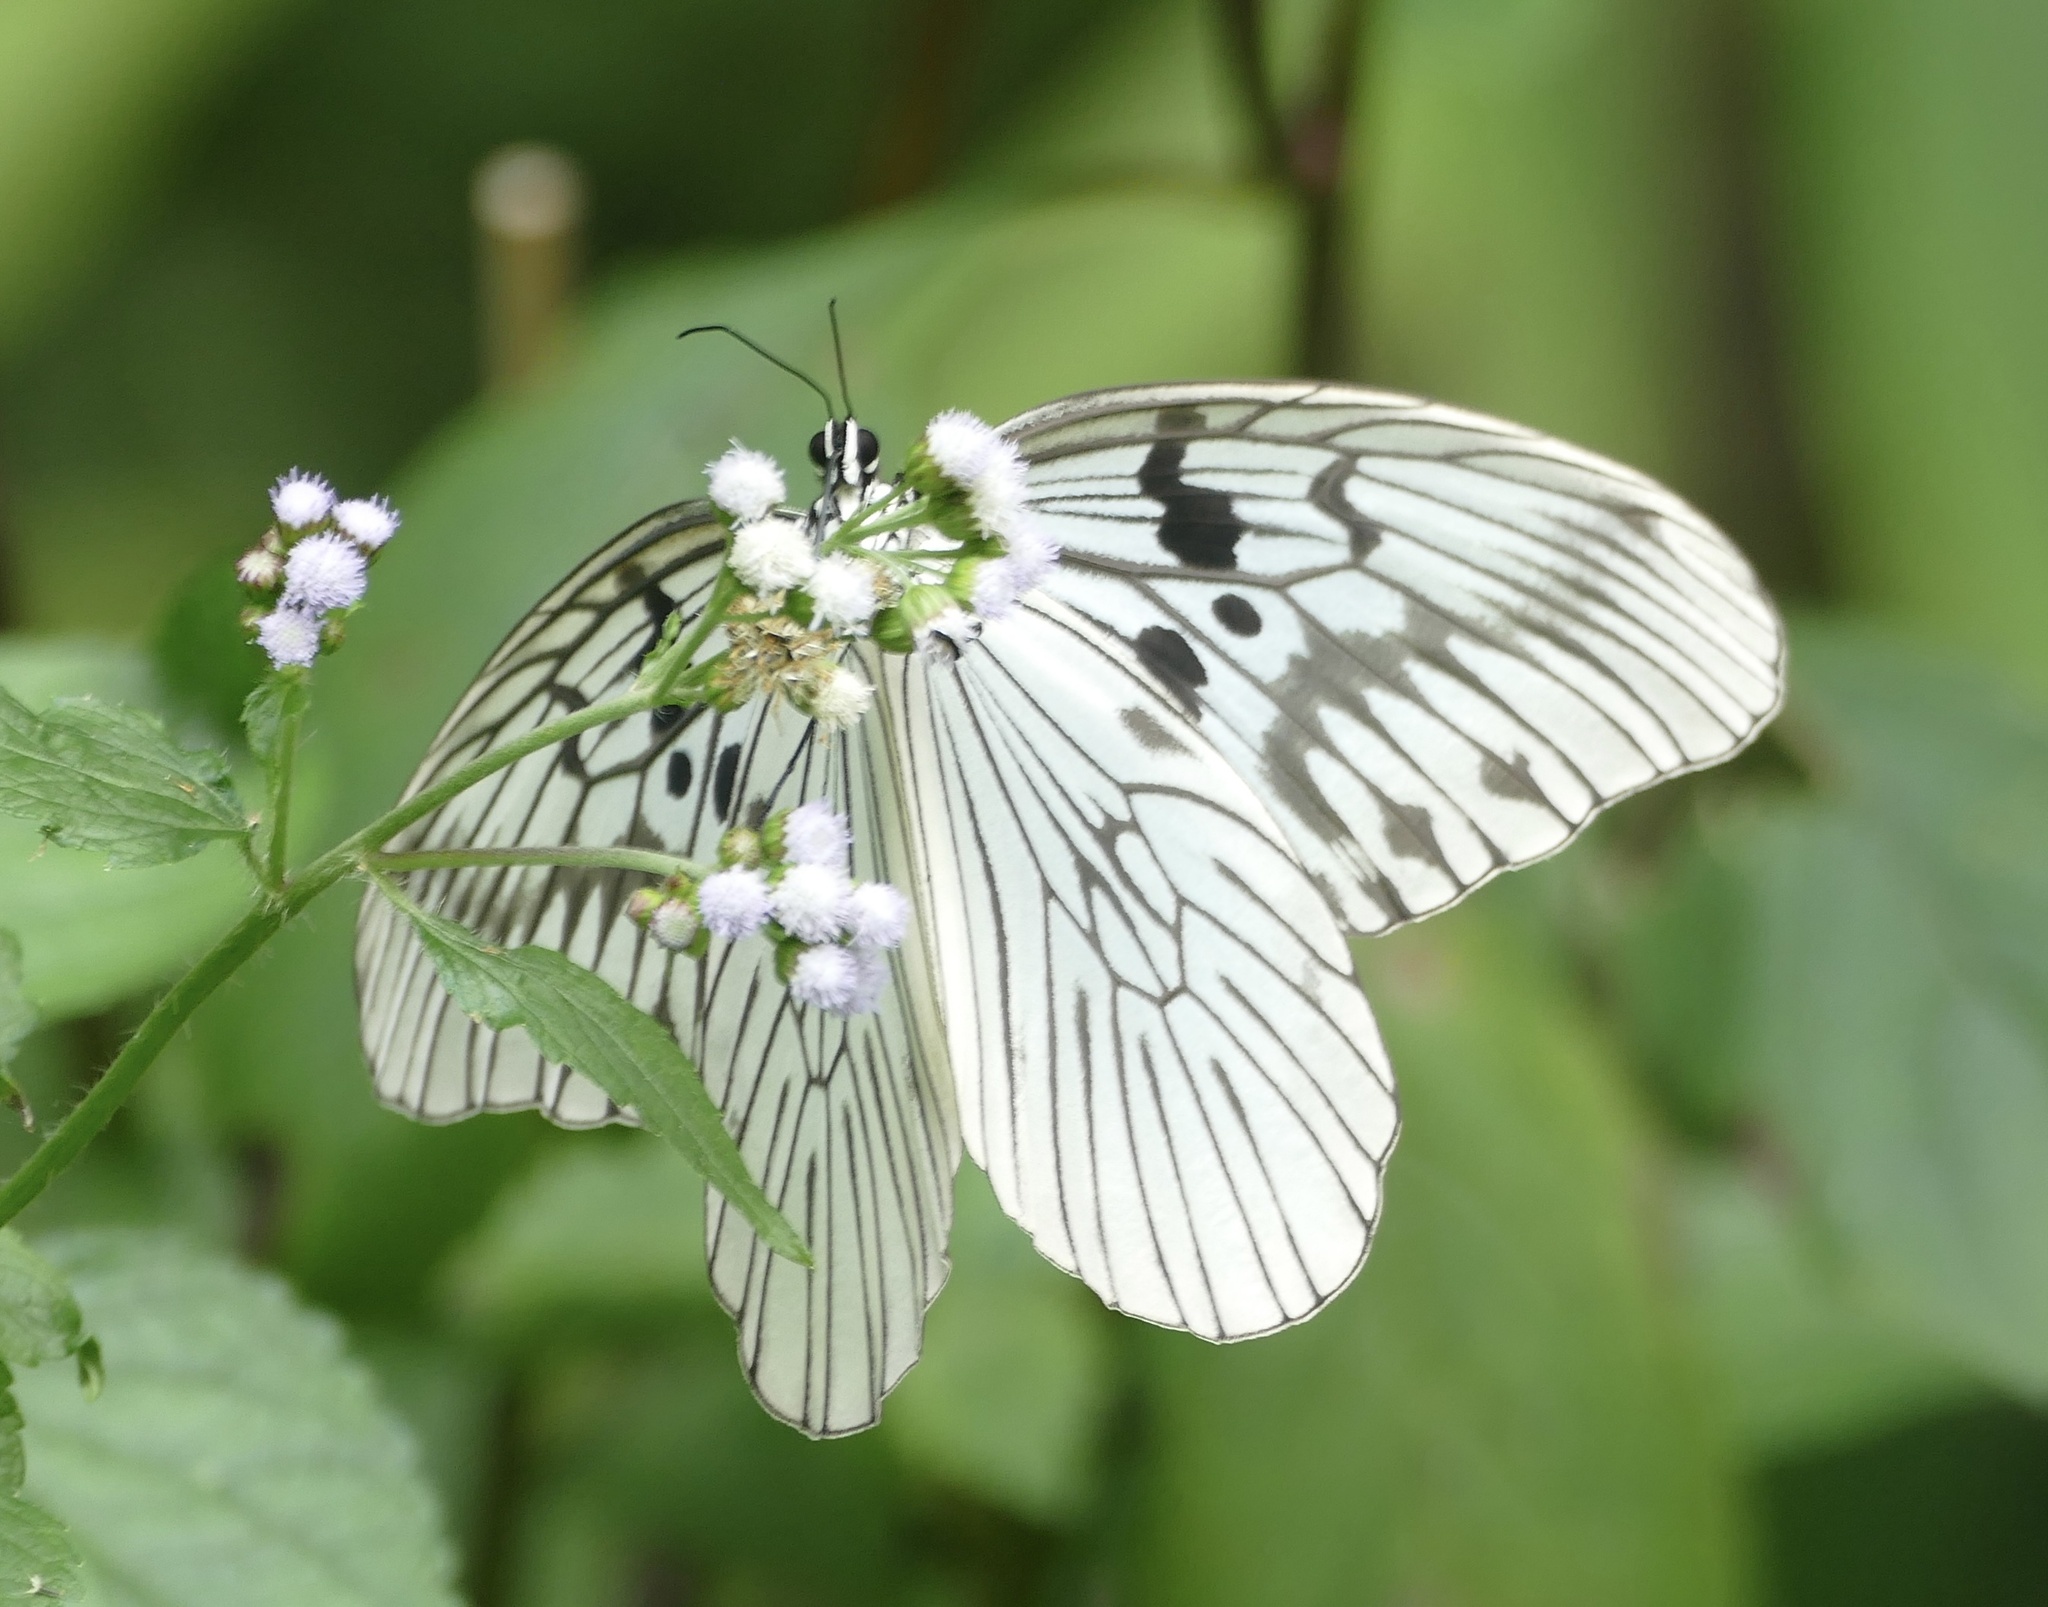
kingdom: Animalia
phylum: Arthropoda
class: Insecta
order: Lepidoptera
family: Nymphalidae
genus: Idea
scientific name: Idea blanchardii
